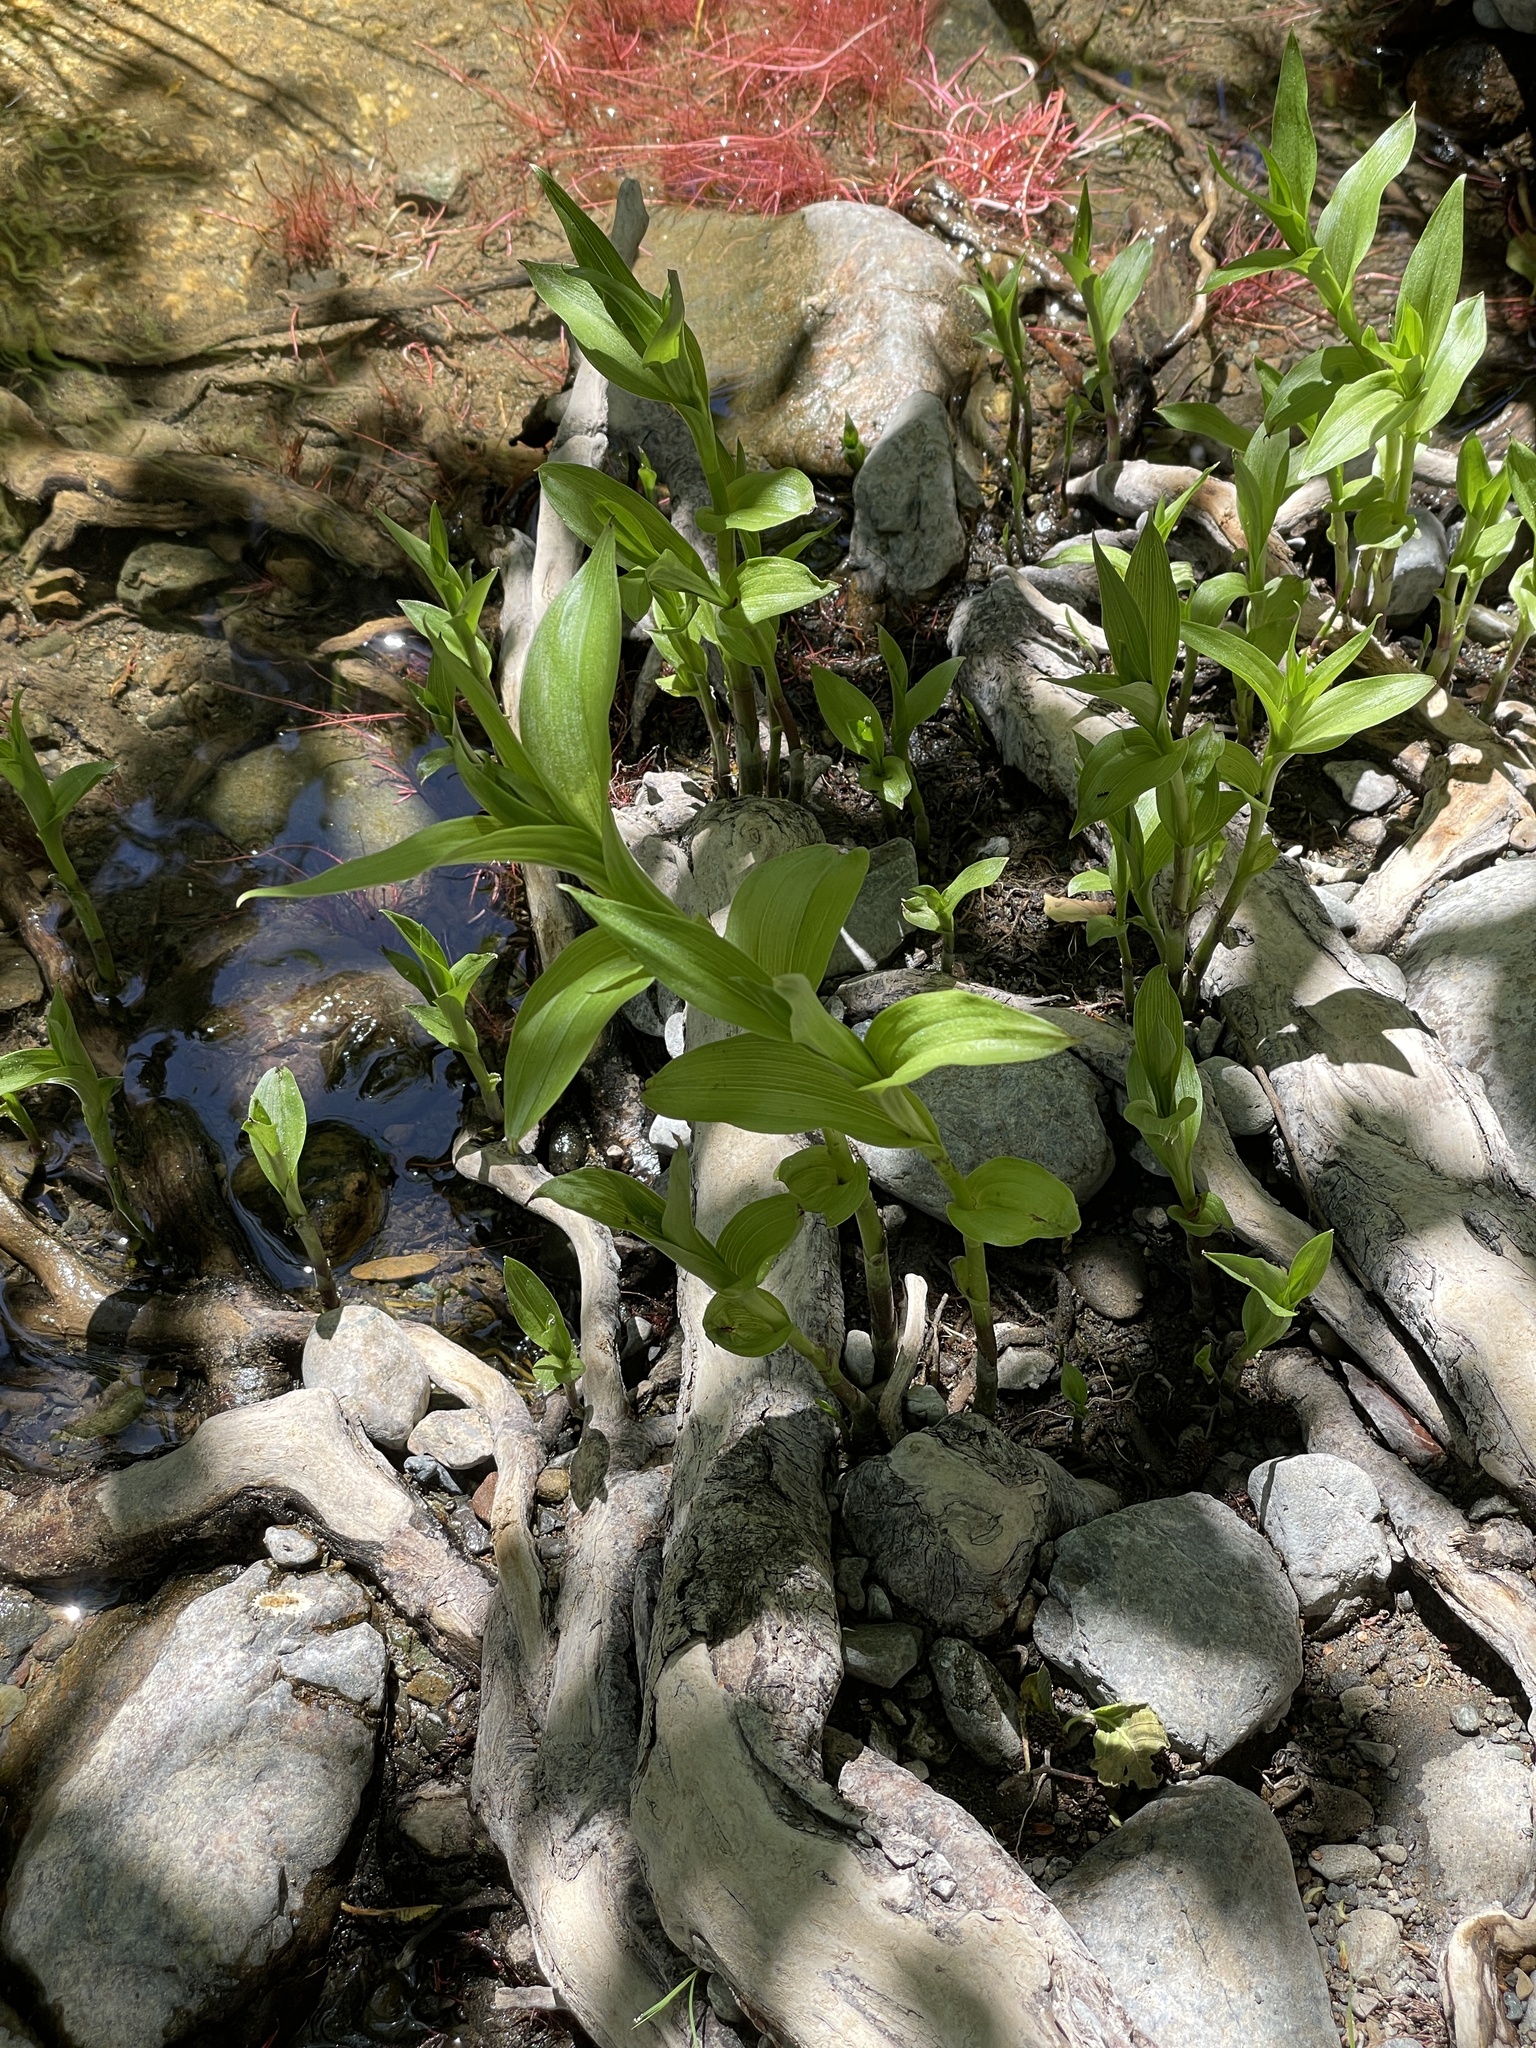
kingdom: Plantae
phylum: Tracheophyta
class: Liliopsida
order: Asparagales
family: Orchidaceae
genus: Epipactis
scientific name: Epipactis gigantea
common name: Chatterbox
